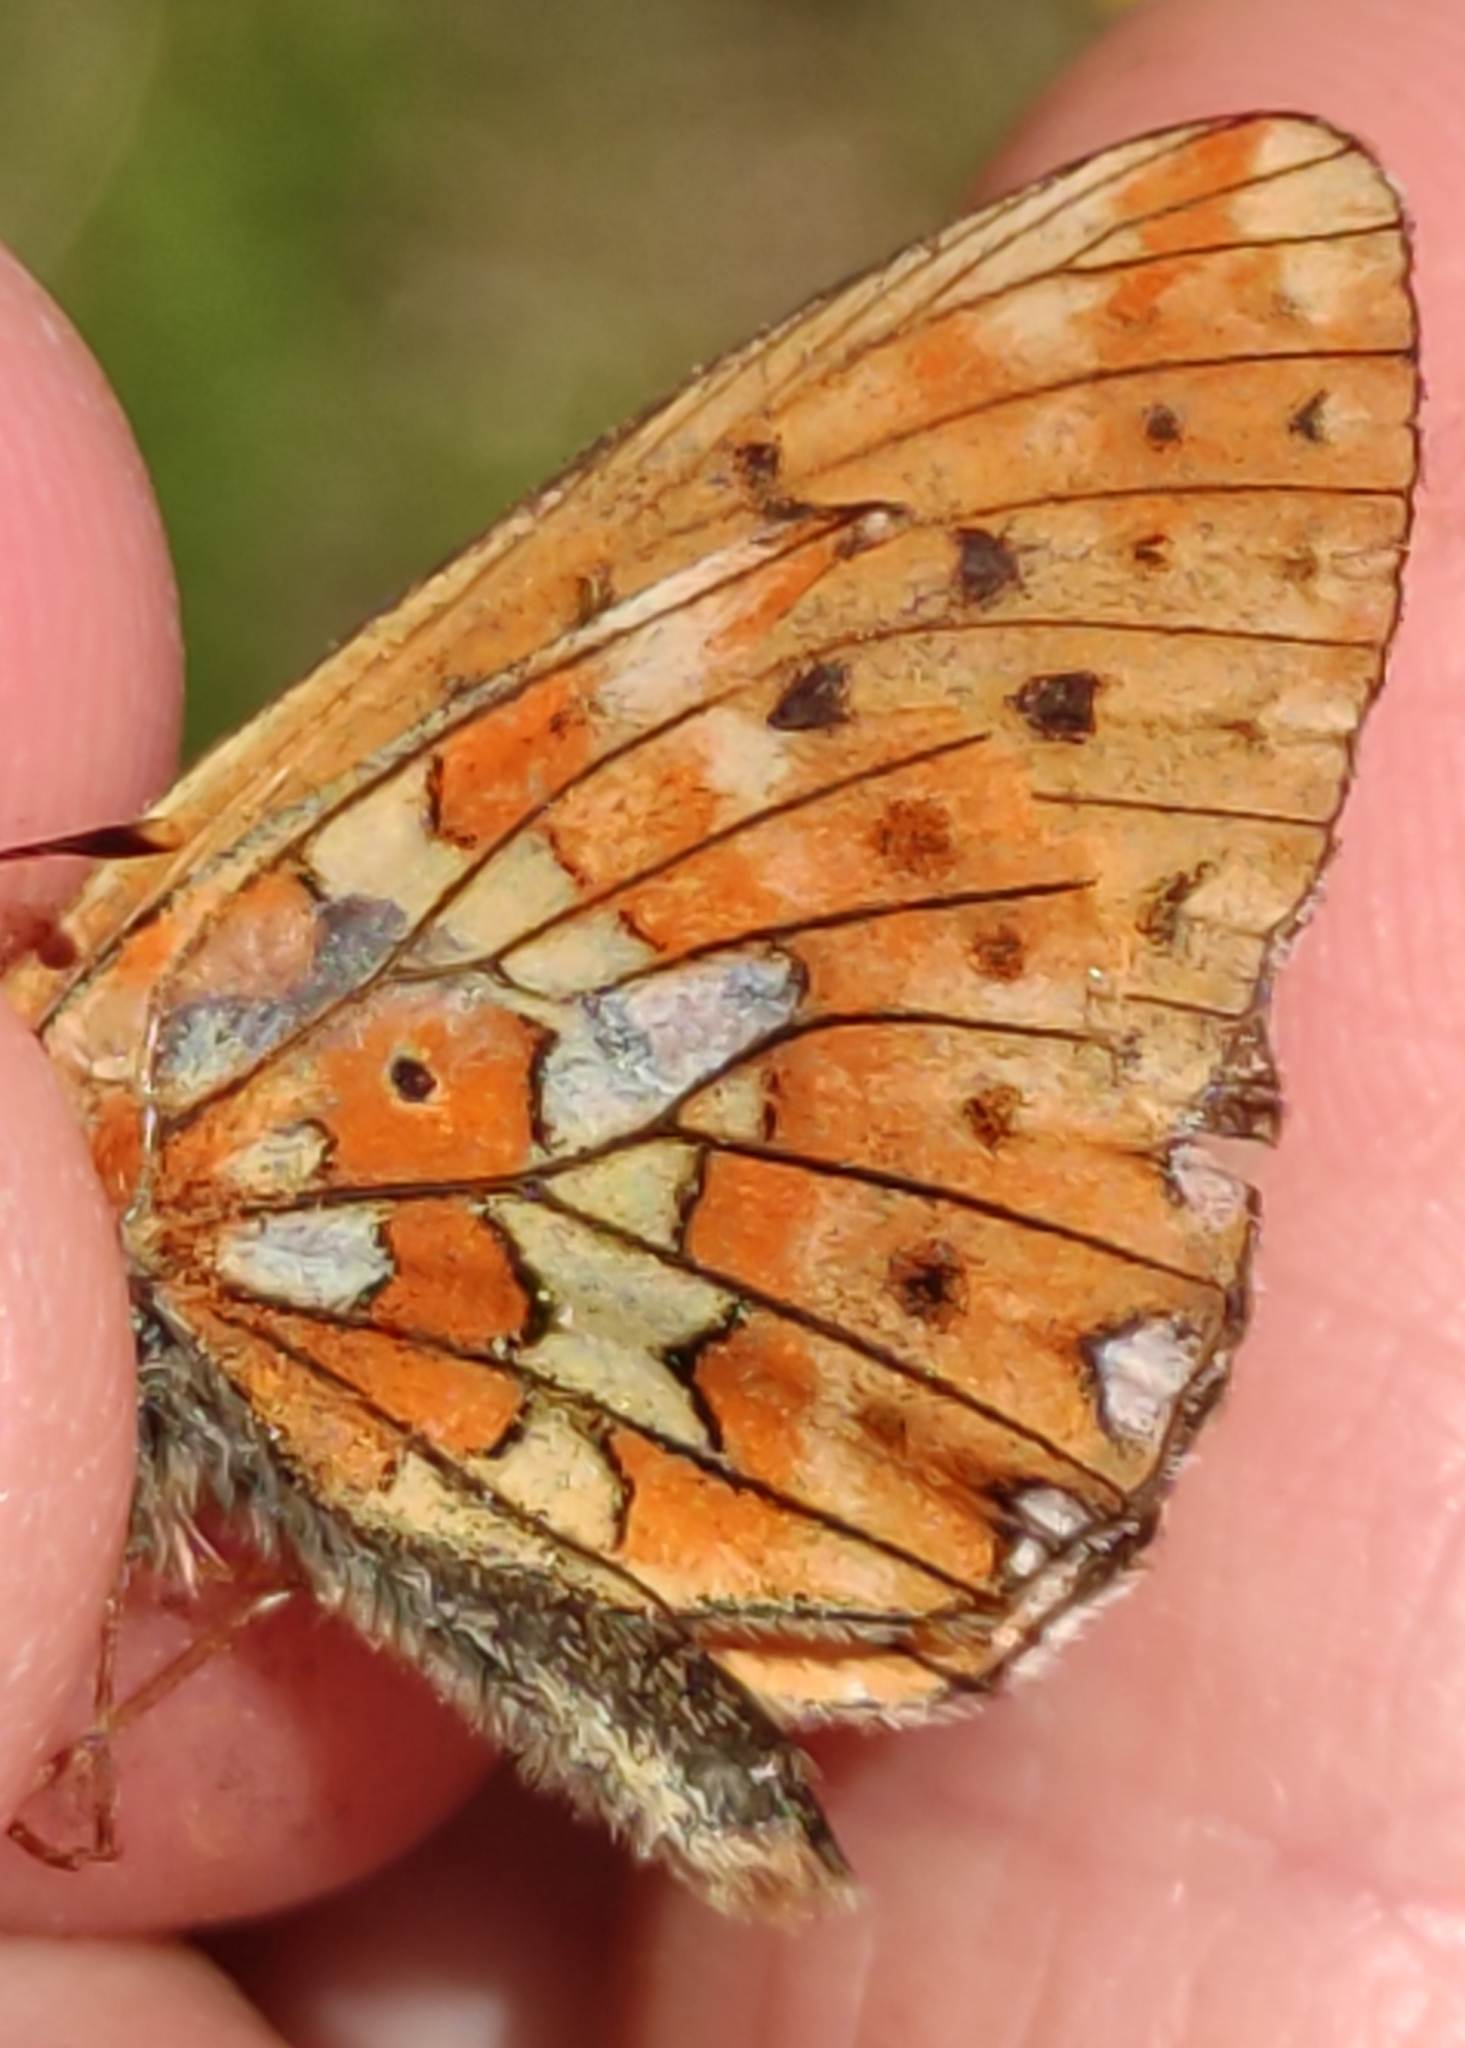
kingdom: Animalia
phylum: Arthropoda
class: Insecta
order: Lepidoptera
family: Nymphalidae
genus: Clossiana
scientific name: Clossiana euphrosyne
